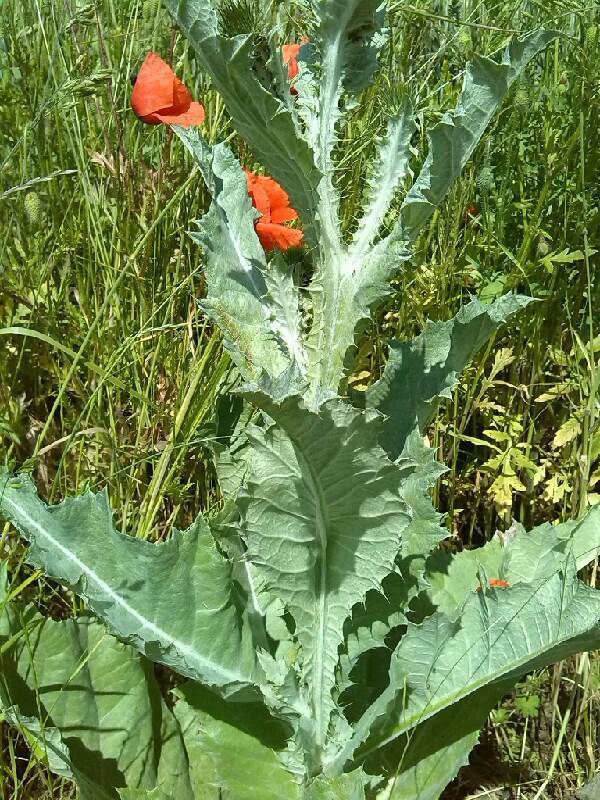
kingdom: Plantae
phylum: Tracheophyta
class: Magnoliopsida
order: Asterales
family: Asteraceae
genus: Onopordum
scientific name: Onopordum acanthium
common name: Scotch thistle
